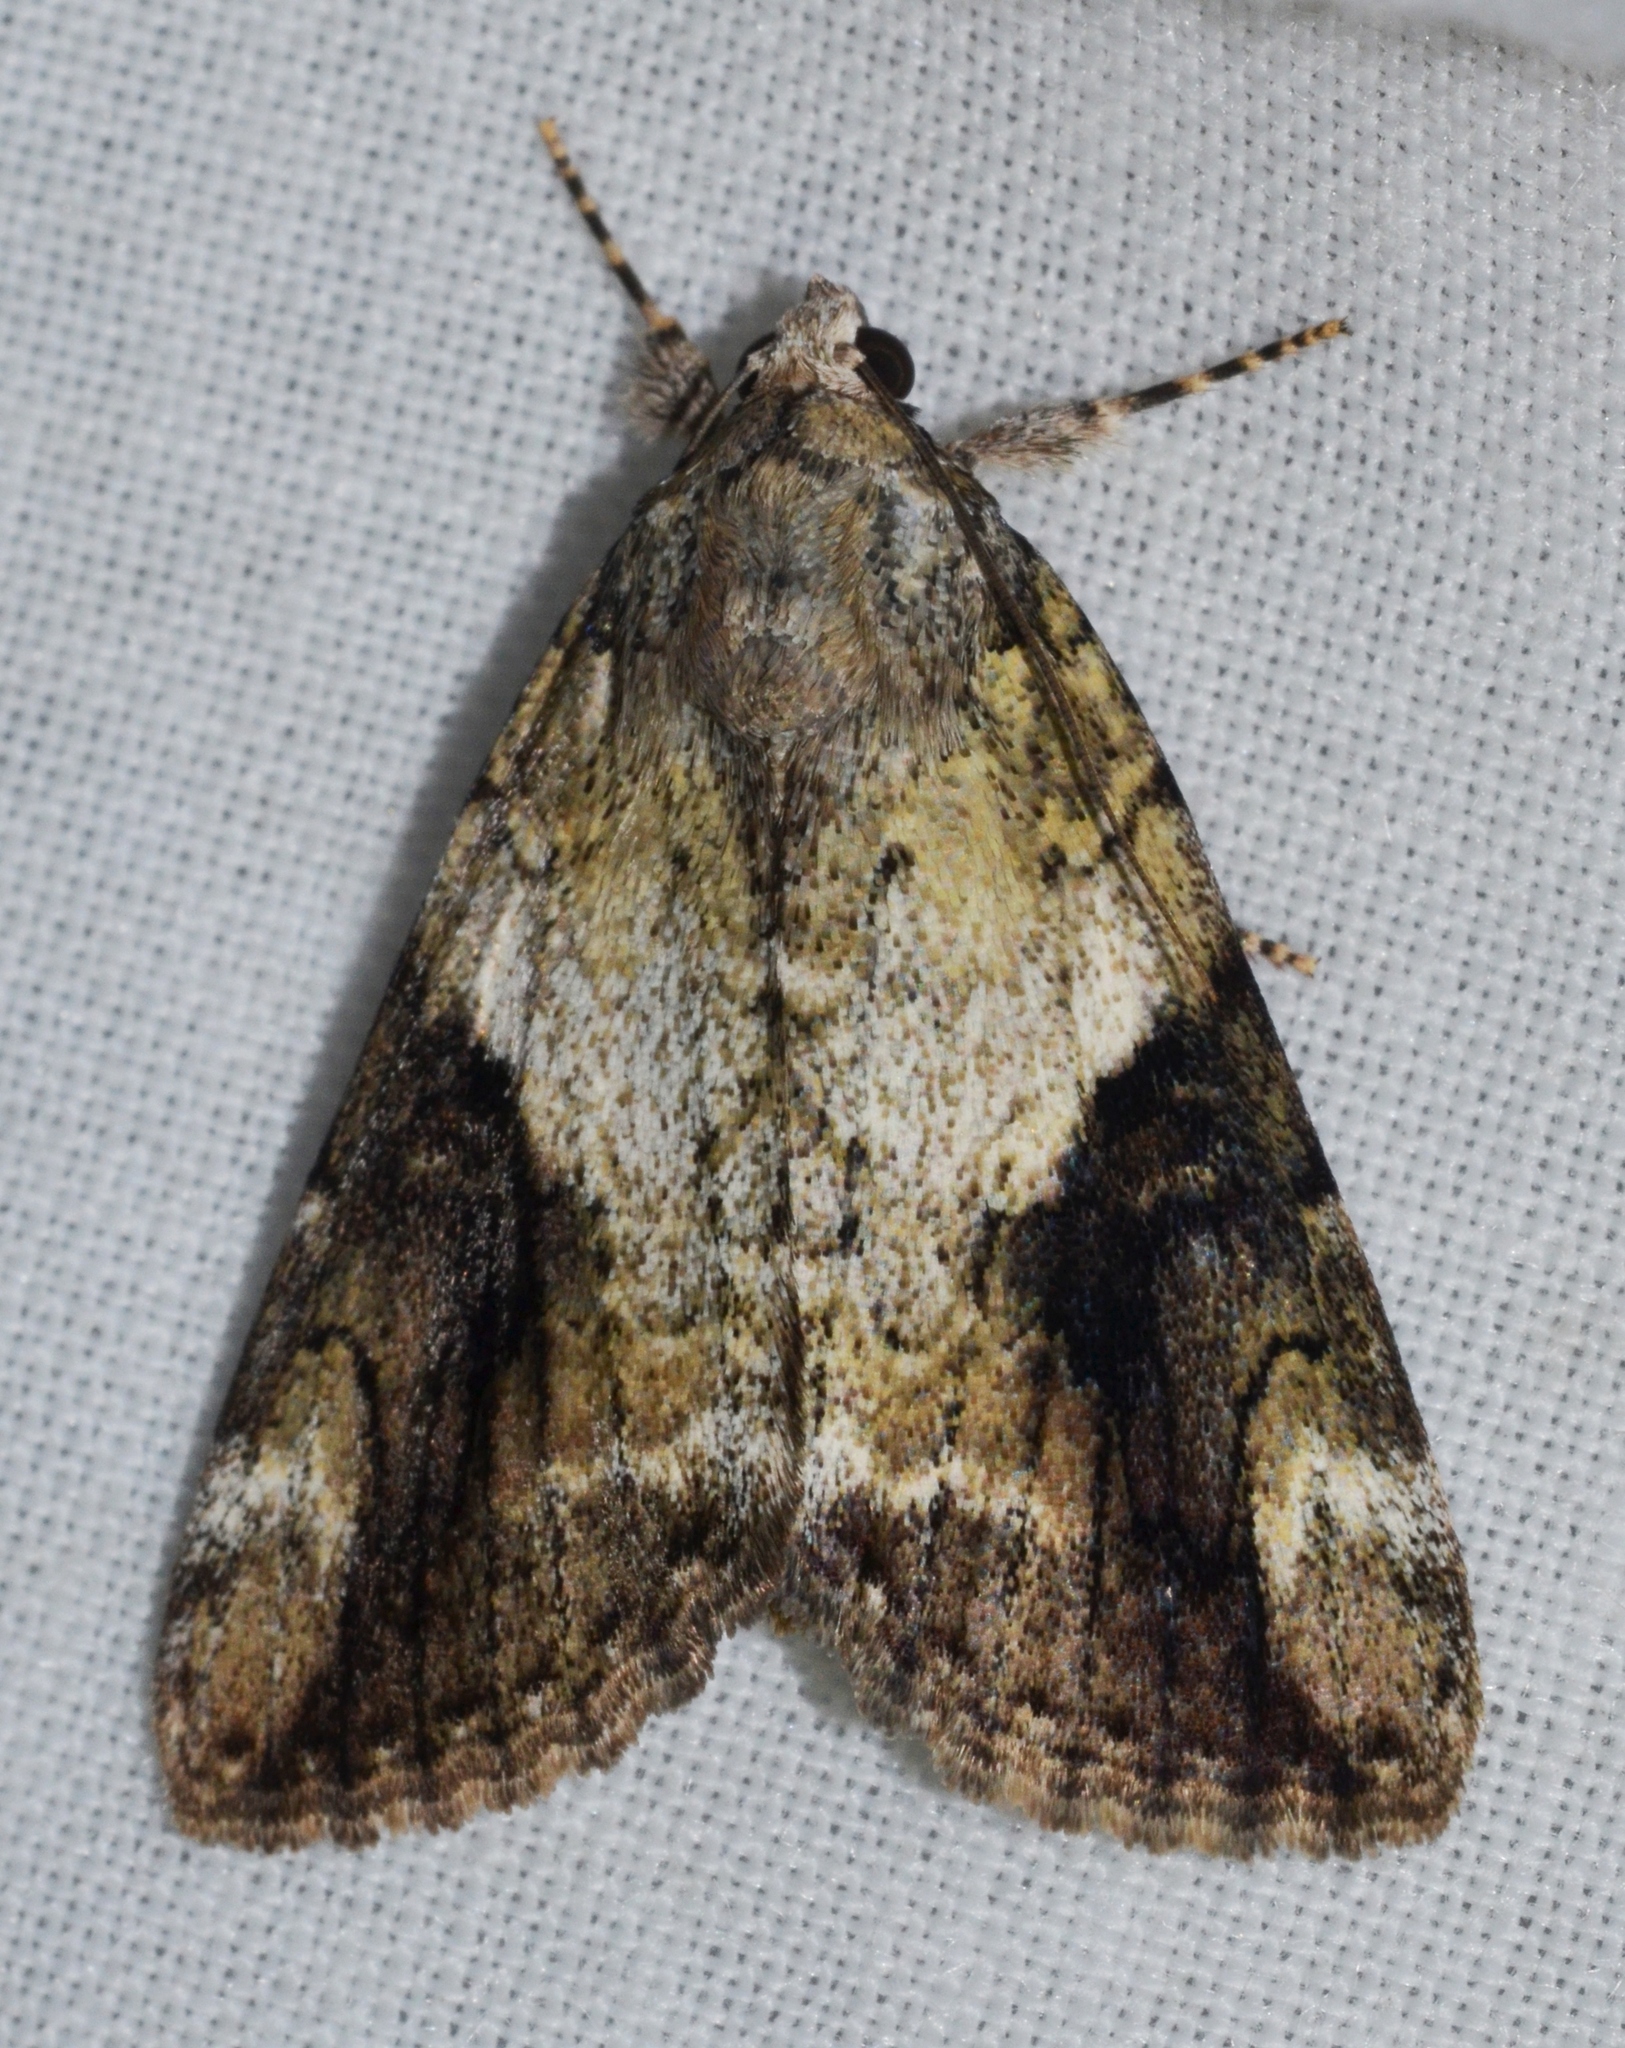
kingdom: Animalia
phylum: Arthropoda
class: Insecta
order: Lepidoptera
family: Erebidae
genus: Catocala
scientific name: Catocala micronympha
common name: Little nymph underwing
